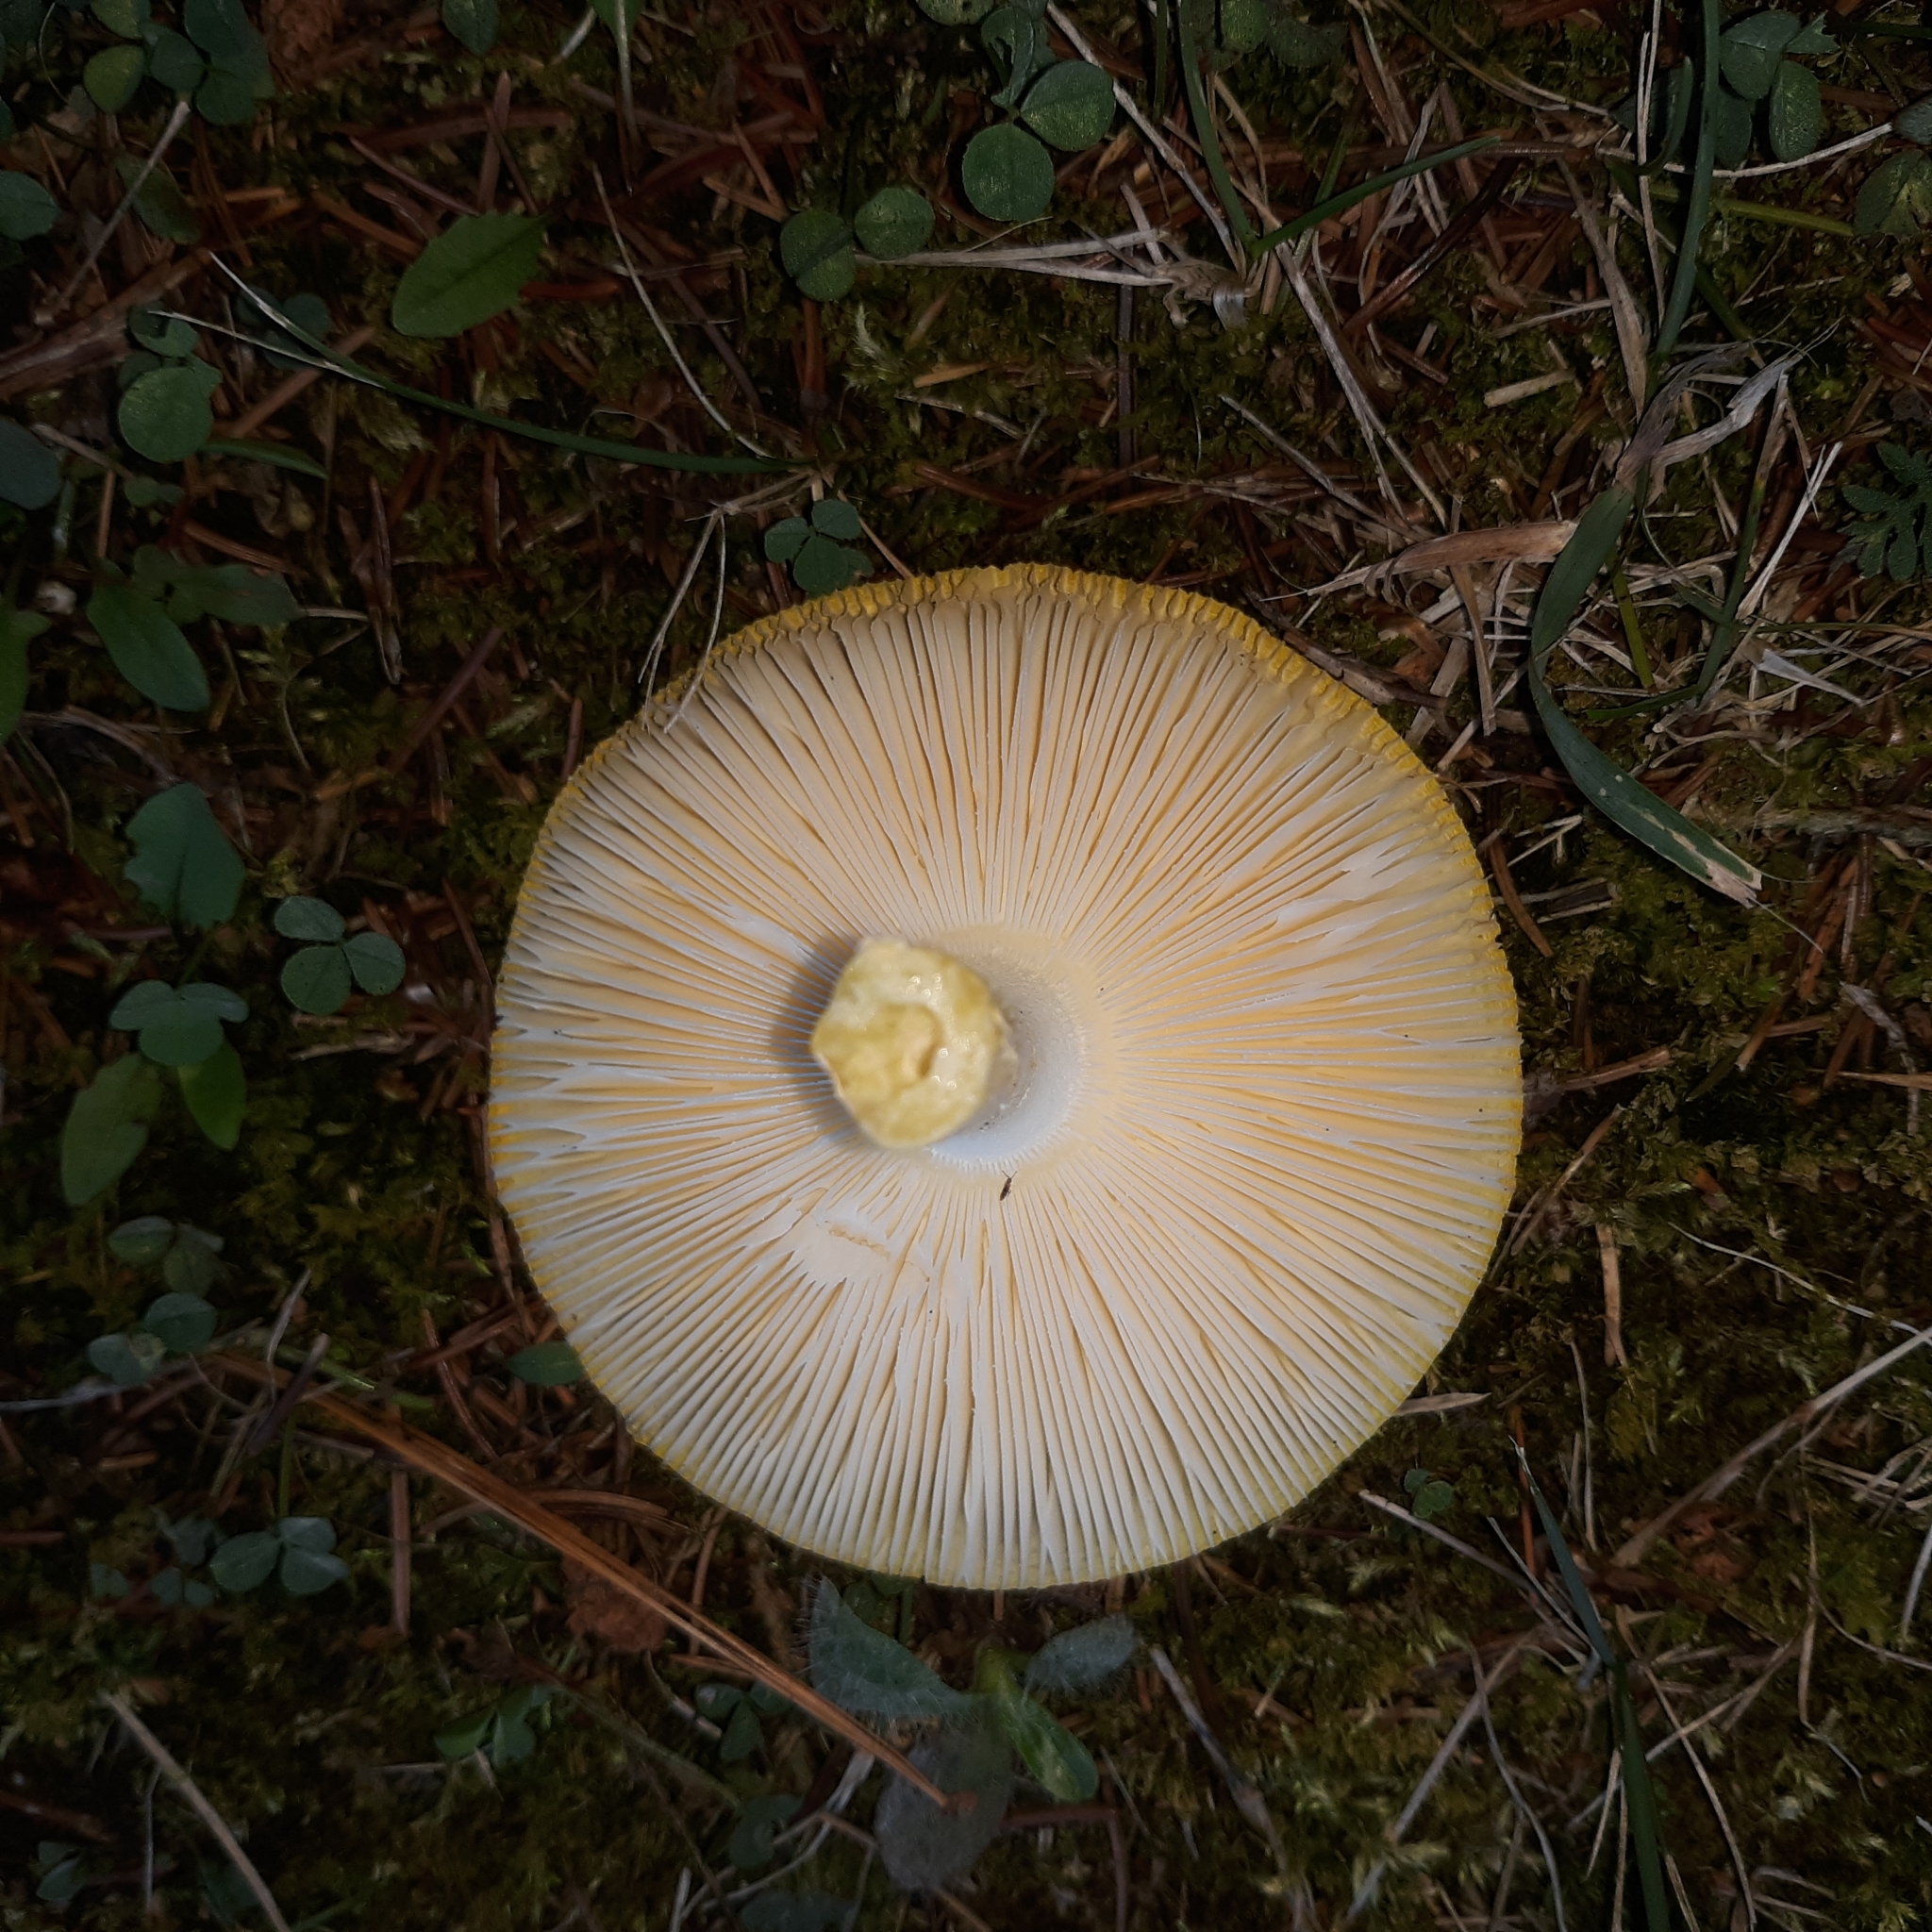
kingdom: Fungi
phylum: Basidiomycota
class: Agaricomycetes
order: Agaricales
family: Amanitaceae
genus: Amanita
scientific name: Amanita muscaria
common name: Fly agaric
